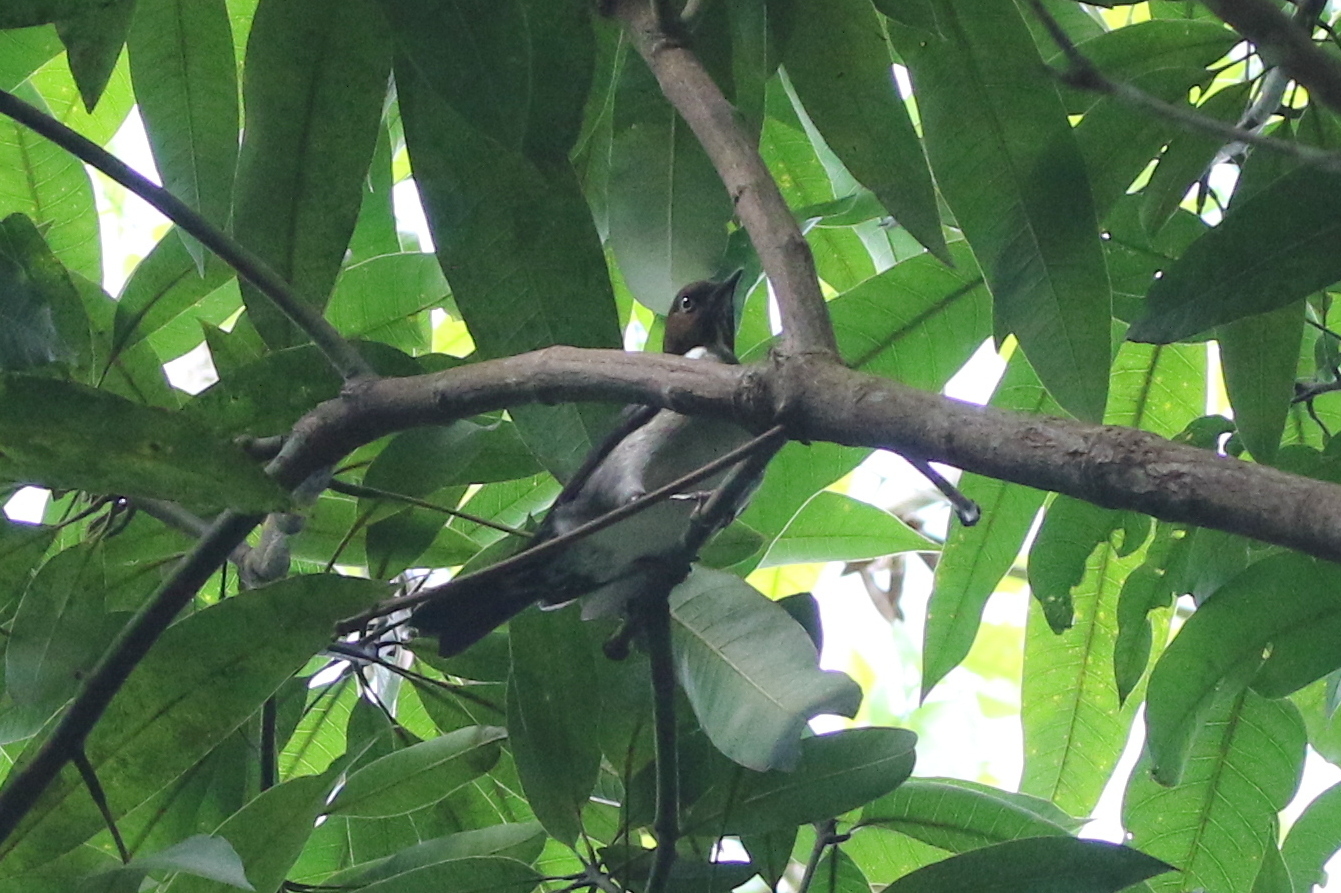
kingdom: Animalia
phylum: Chordata
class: Aves
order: Passeriformes
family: Turdidae
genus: Turdus
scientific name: Turdus jamaicensis
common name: White-eyed thrush
